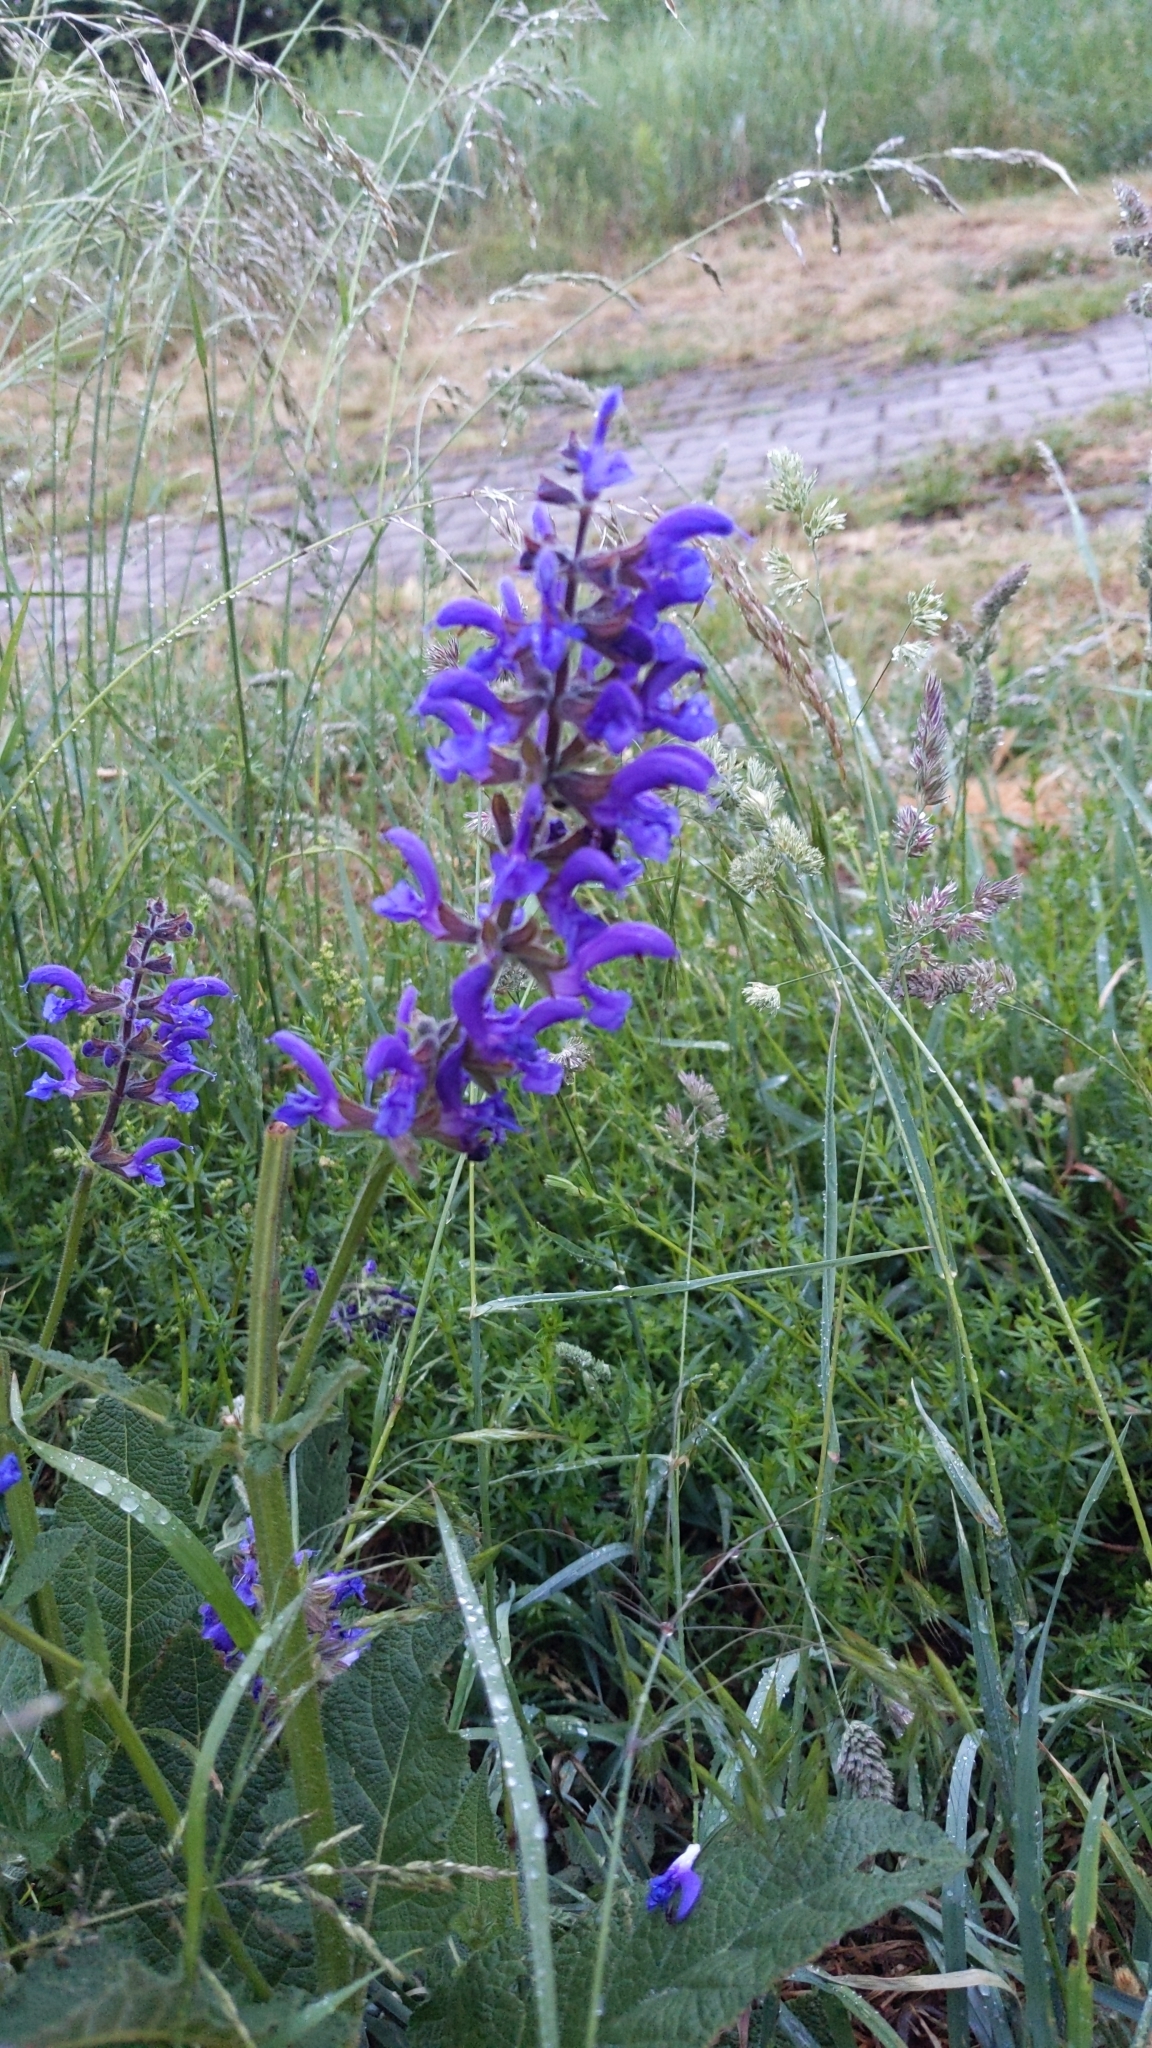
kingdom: Plantae
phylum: Tracheophyta
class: Magnoliopsida
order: Lamiales
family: Lamiaceae
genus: Salvia
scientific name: Salvia pratensis
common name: Meadow sage
